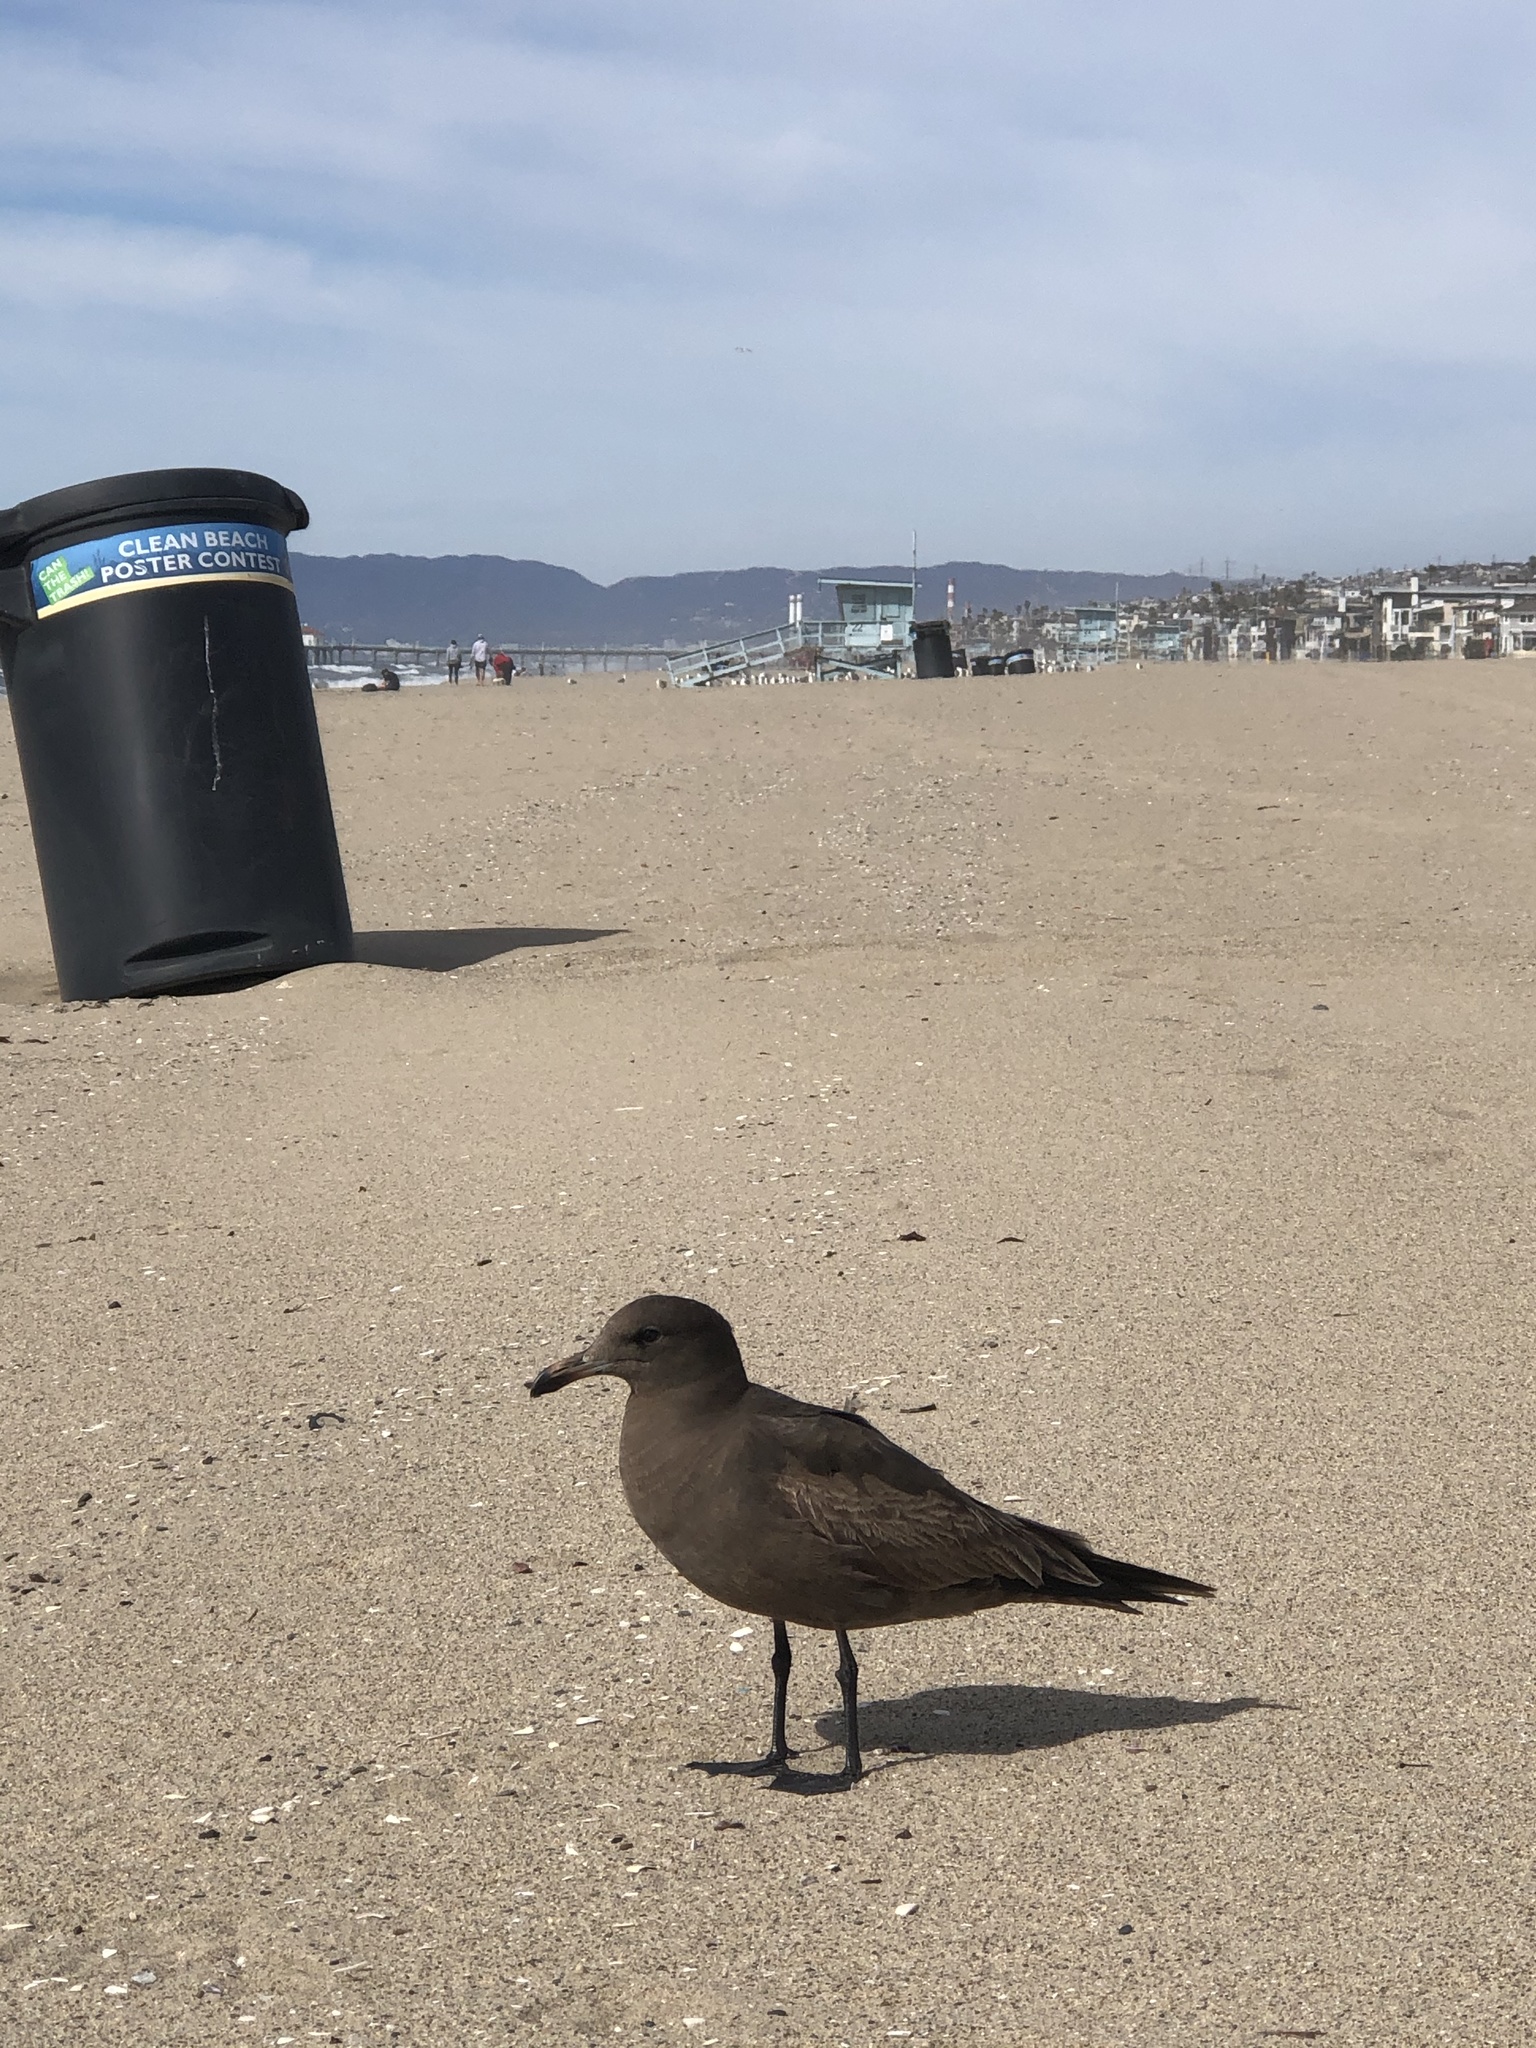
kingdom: Animalia
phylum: Chordata
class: Aves
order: Charadriiformes
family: Laridae
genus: Larus
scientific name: Larus heermanni
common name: Heermann's gull
